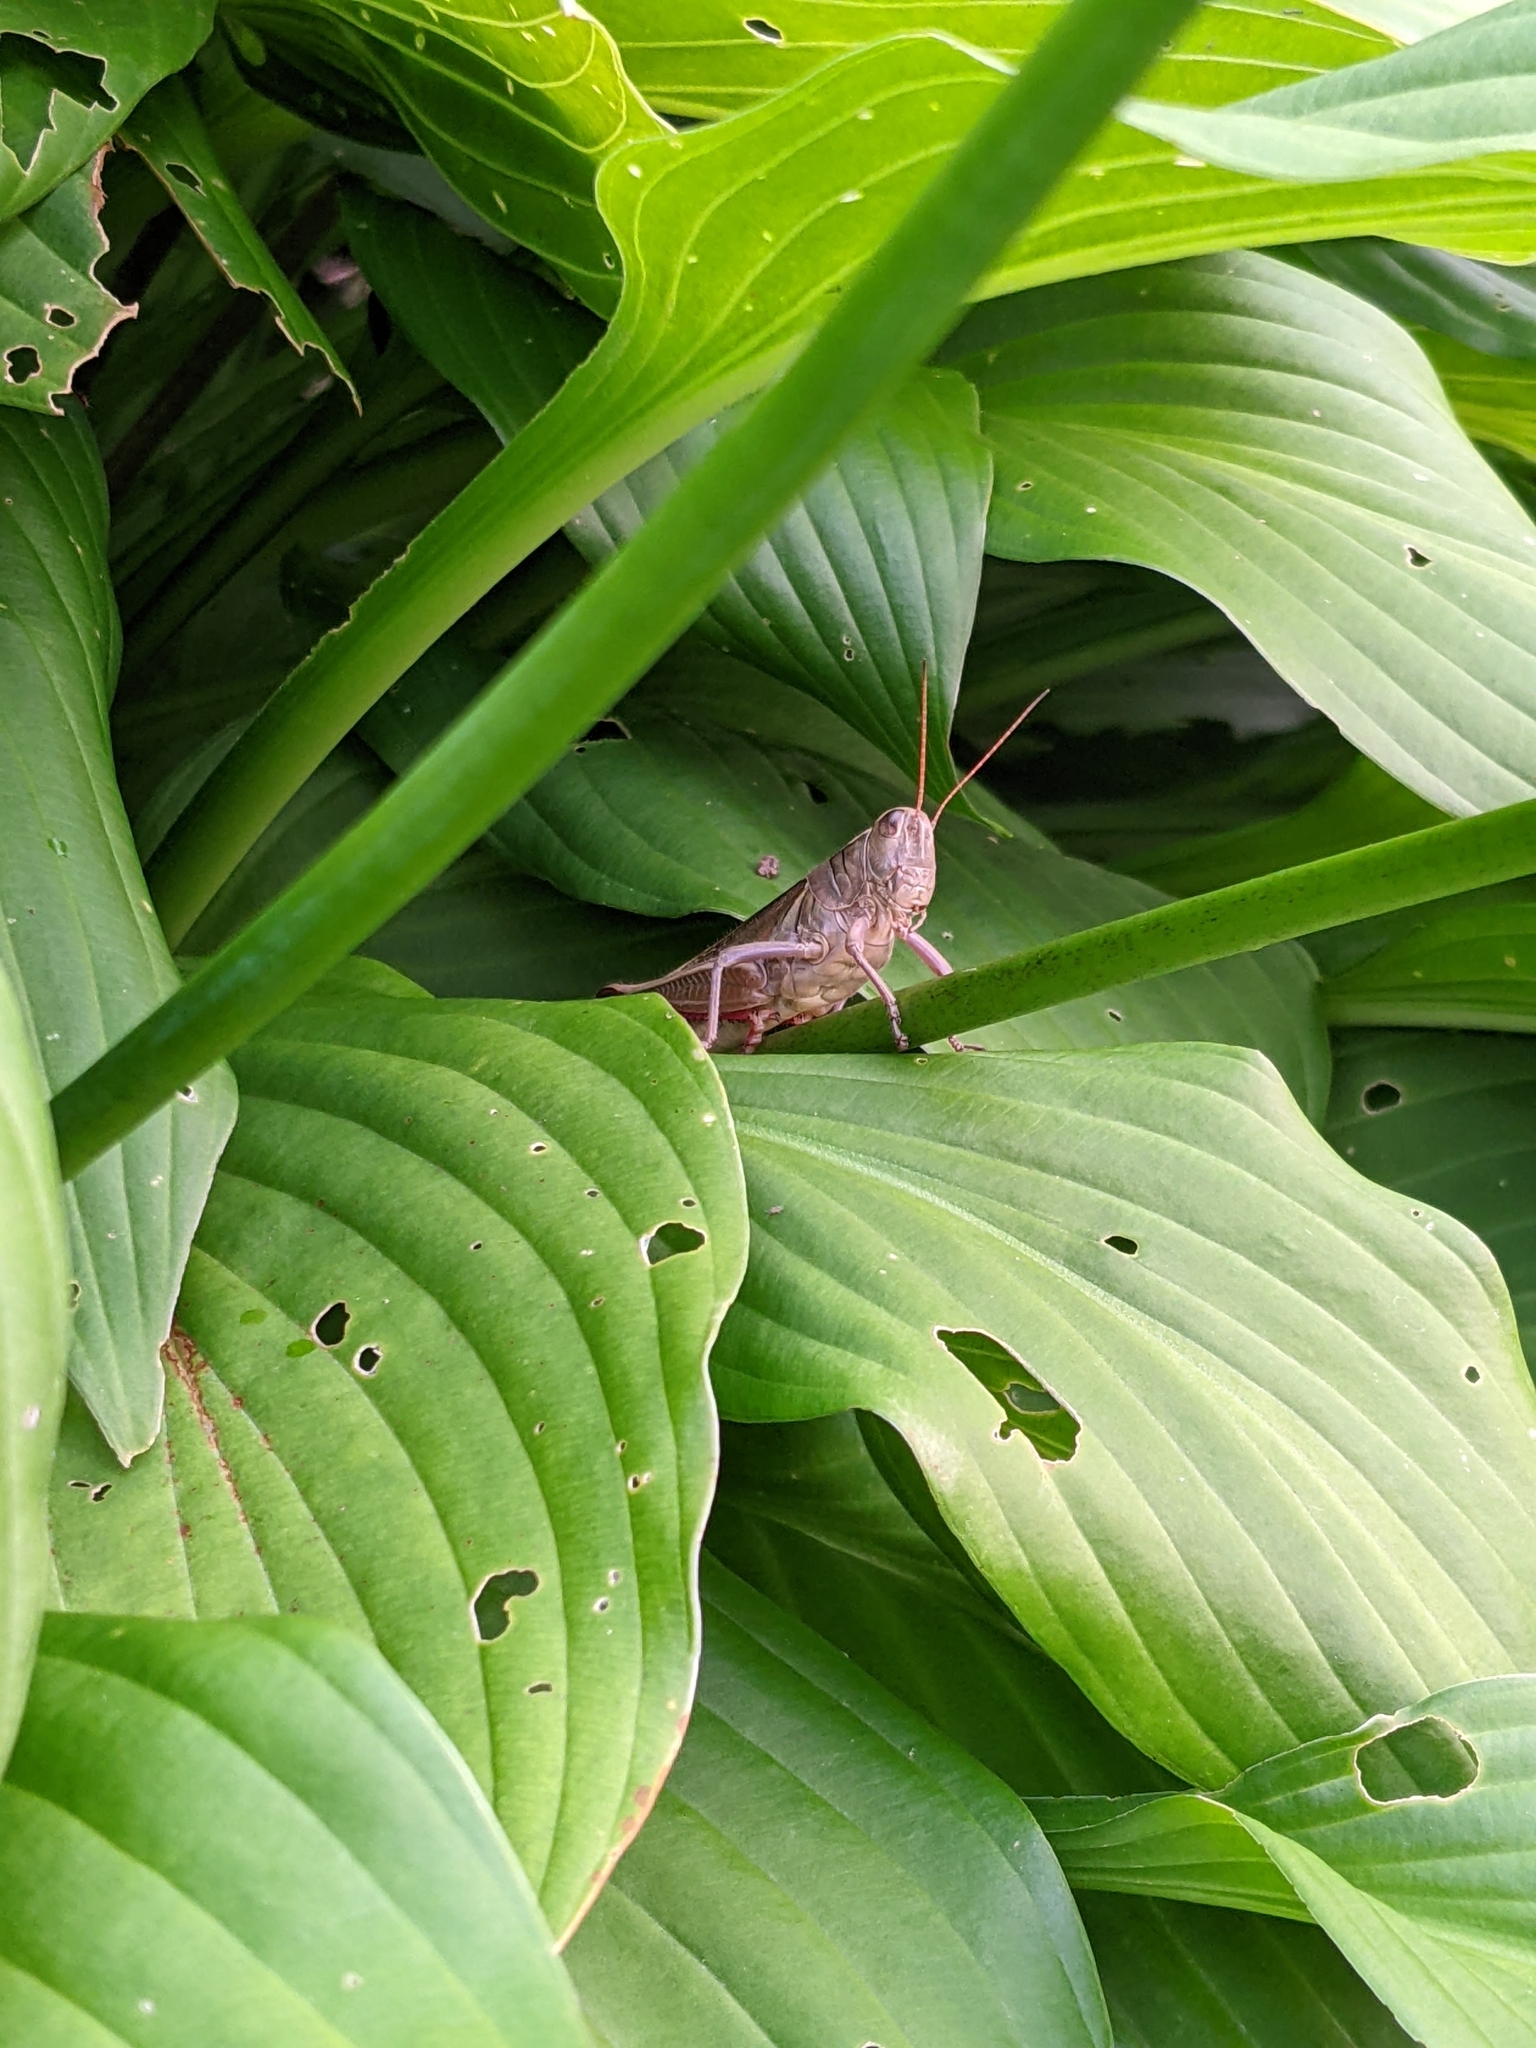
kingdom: Animalia
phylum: Arthropoda
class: Insecta
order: Orthoptera
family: Acrididae
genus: Melanoplus
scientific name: Melanoplus bivittatus
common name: Two-striped grasshopper
